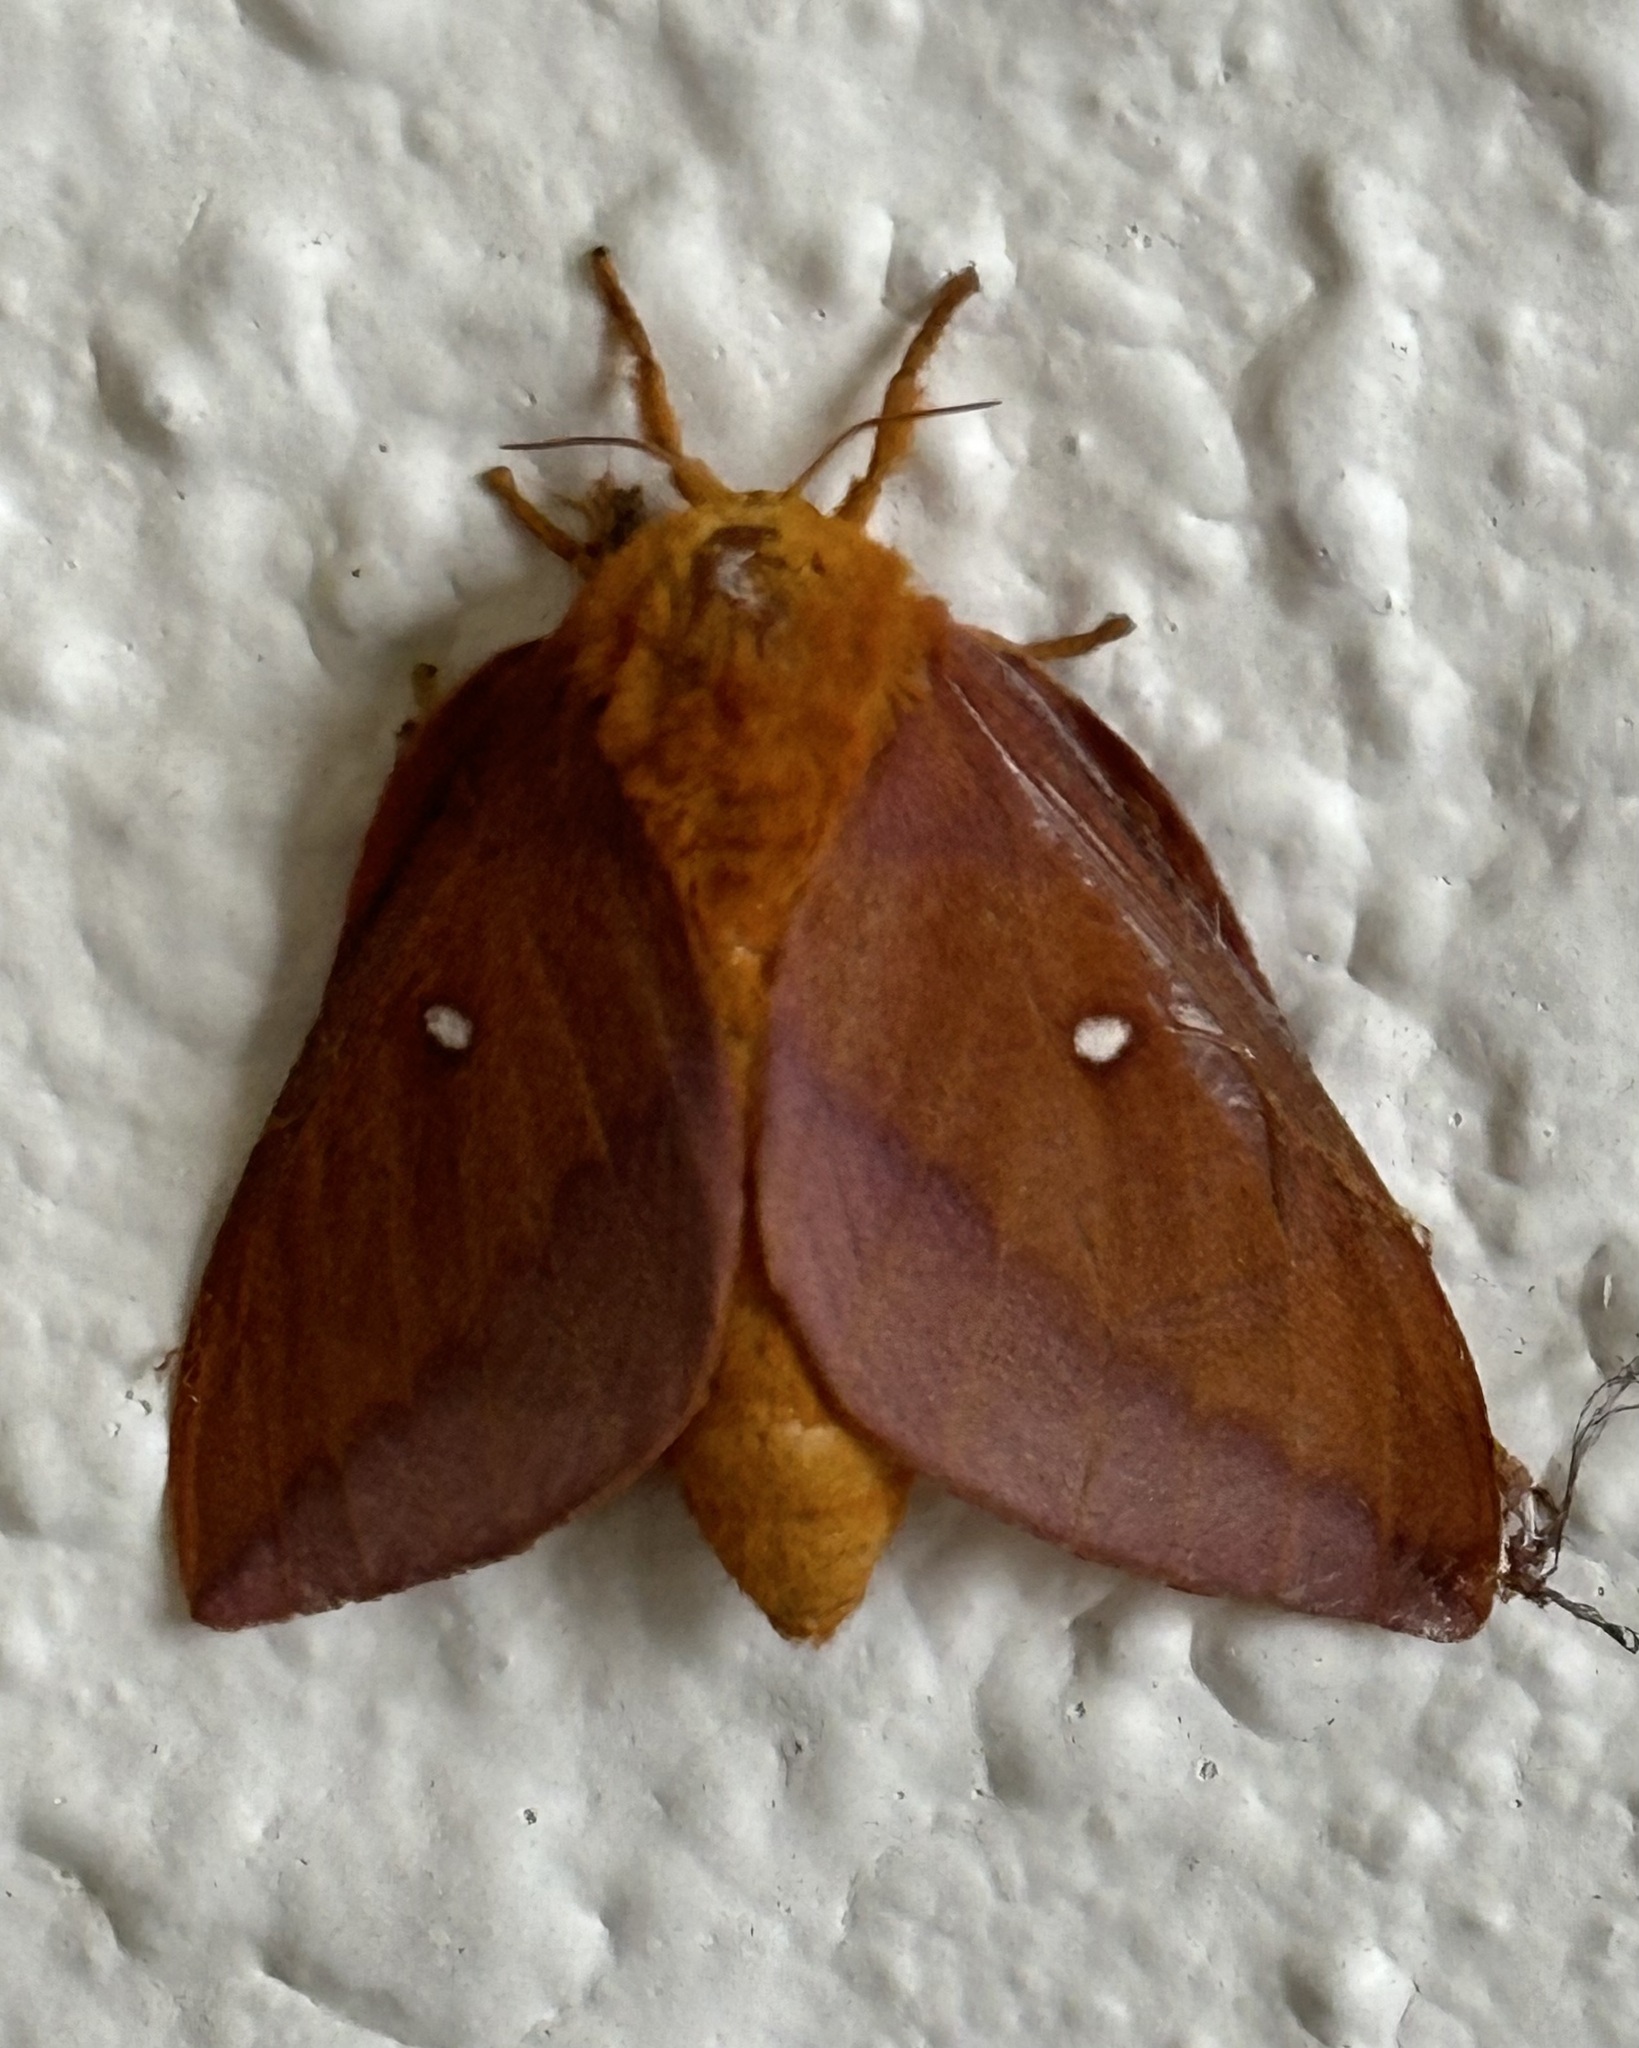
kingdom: Animalia
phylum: Arthropoda
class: Insecta
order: Lepidoptera
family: Saturniidae
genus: Anisota
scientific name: Anisota virginiensis
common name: Pink striped oakworm moth
